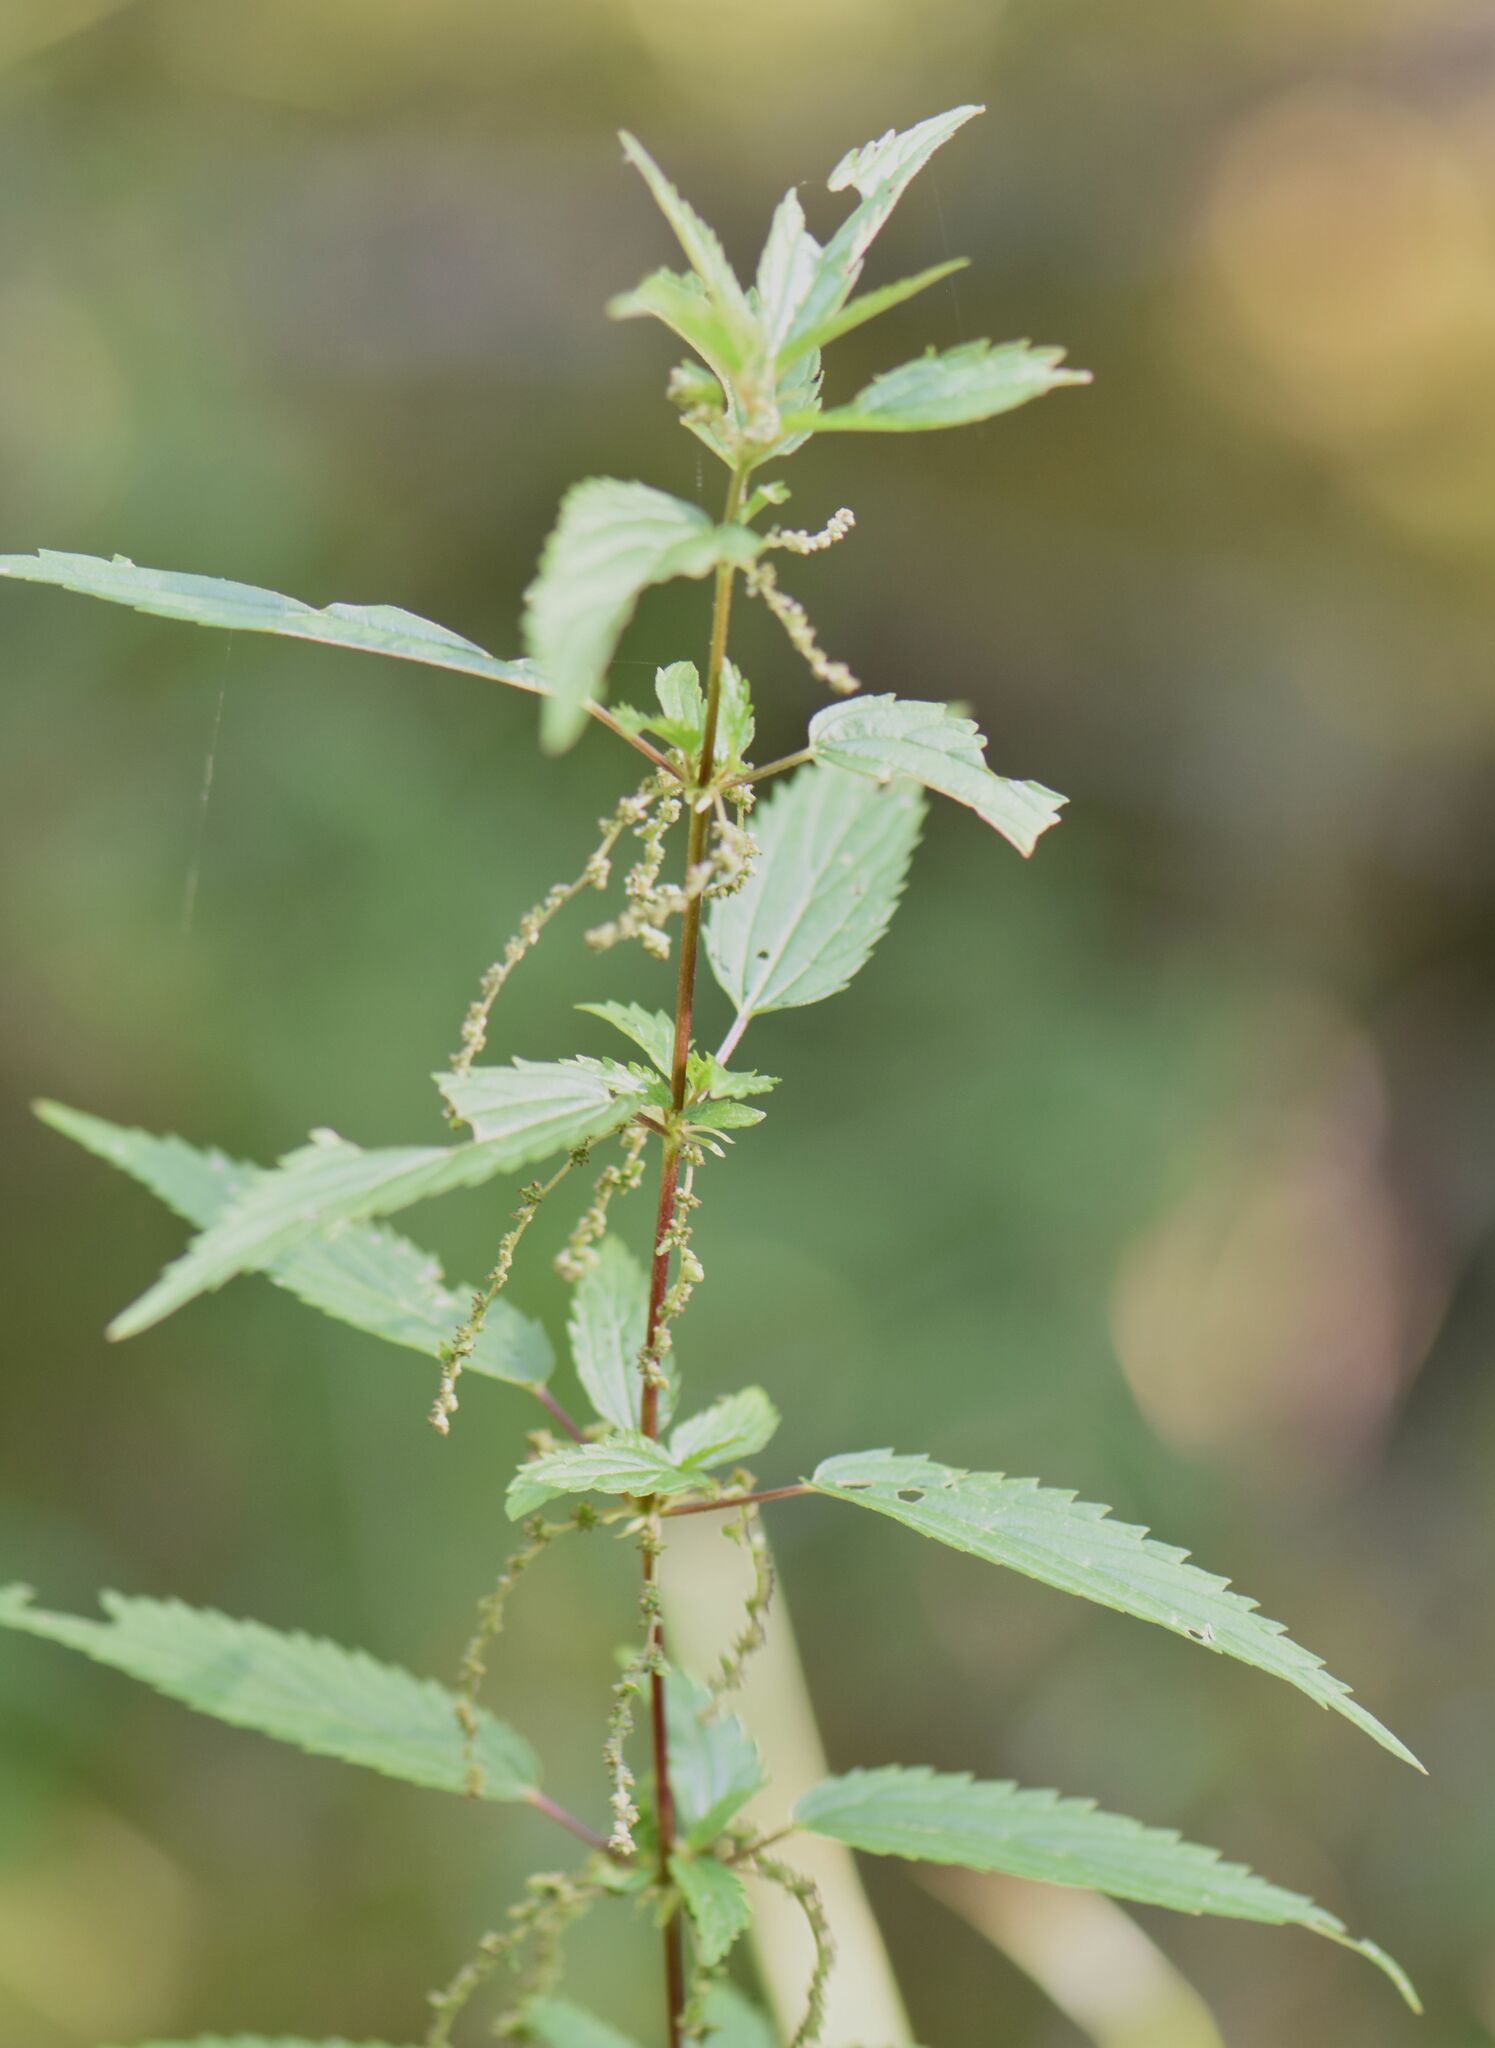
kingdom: Plantae
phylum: Tracheophyta
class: Magnoliopsida
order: Rosales
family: Urticaceae
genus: Urtica
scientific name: Urtica gracilis
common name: Slender stinging nettle
